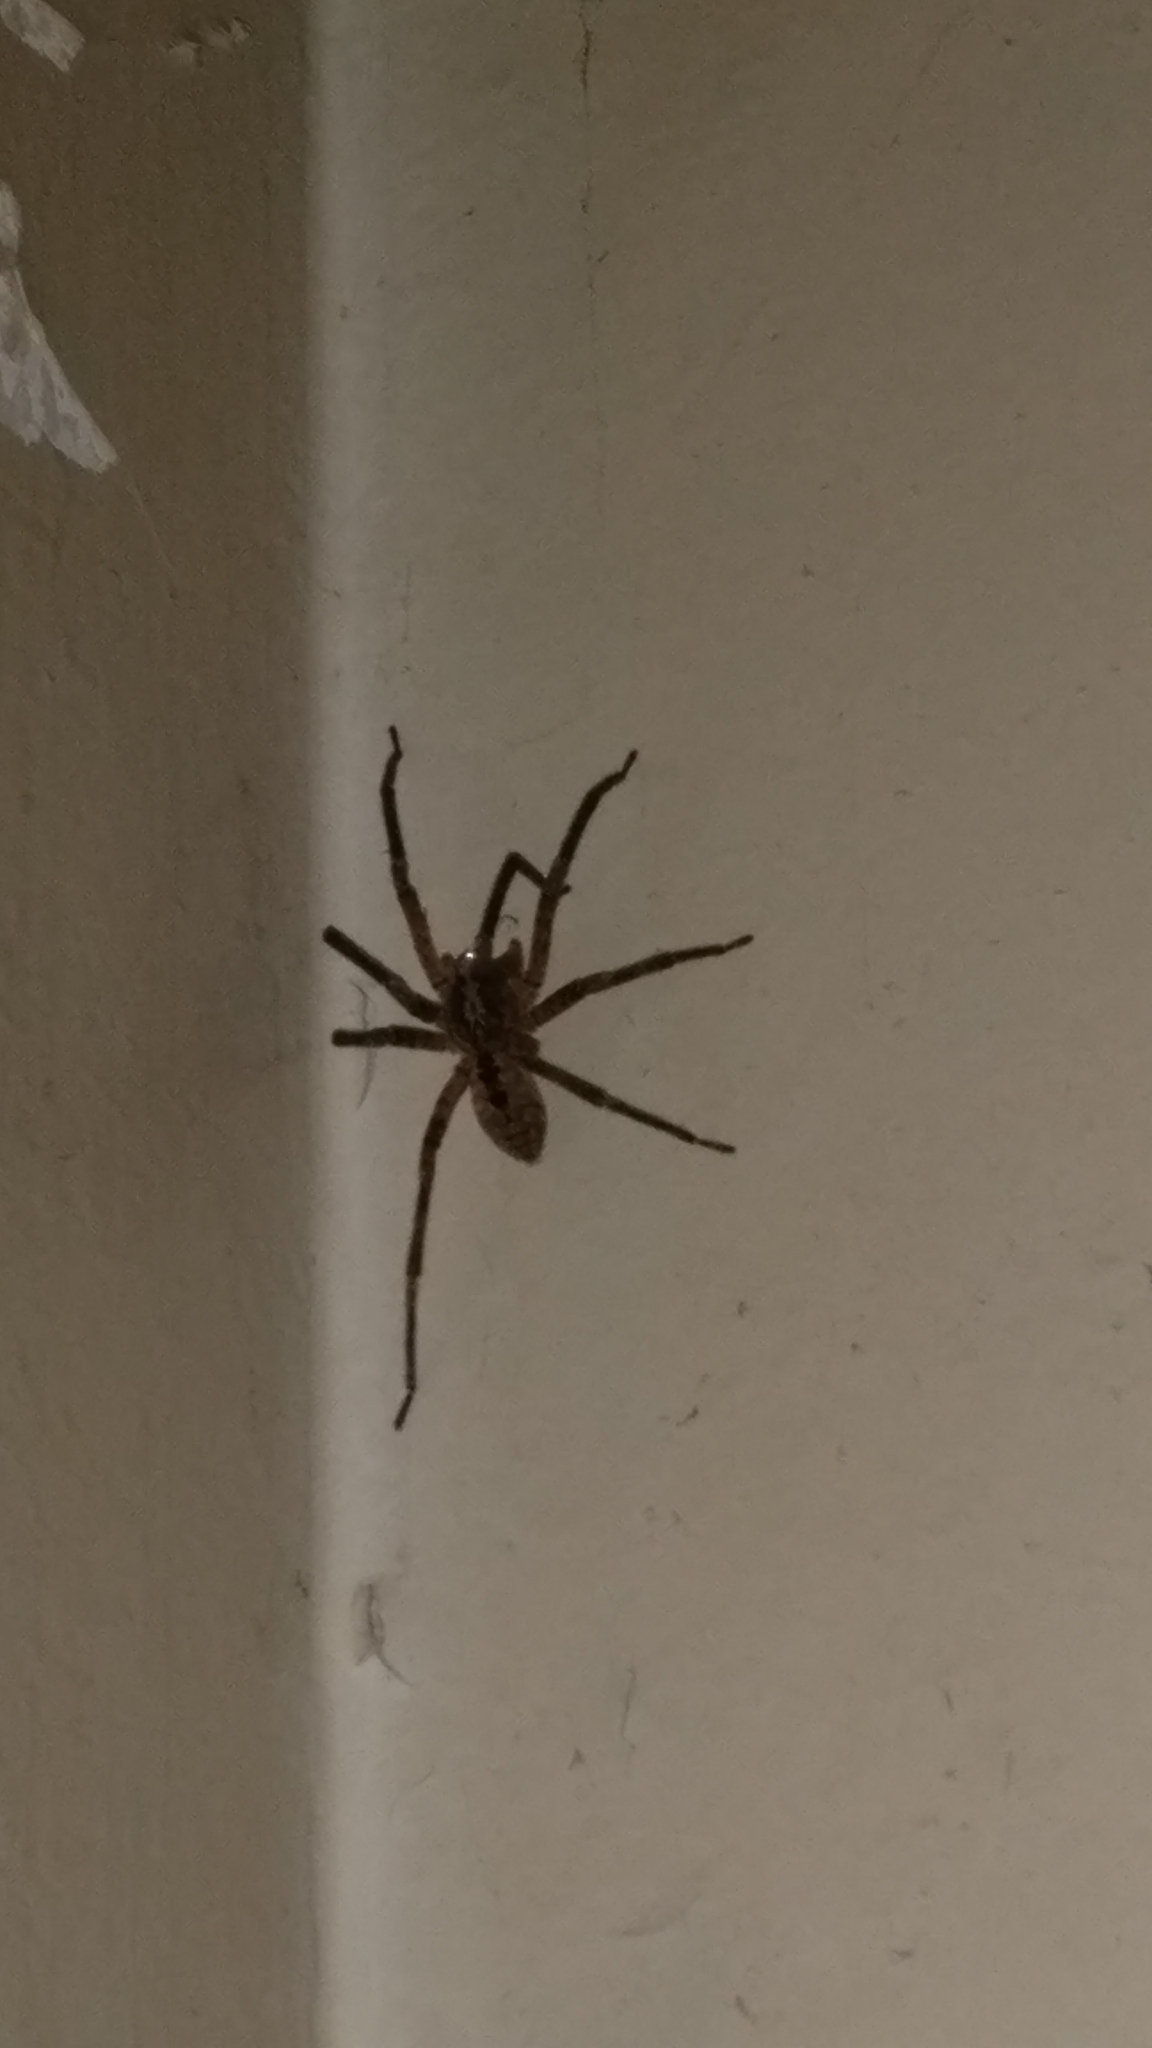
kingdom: Animalia
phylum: Arthropoda
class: Arachnida
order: Araneae
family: Zoropsidae
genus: Zoropsis
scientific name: Zoropsis spinimana
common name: Zoropsid spider
